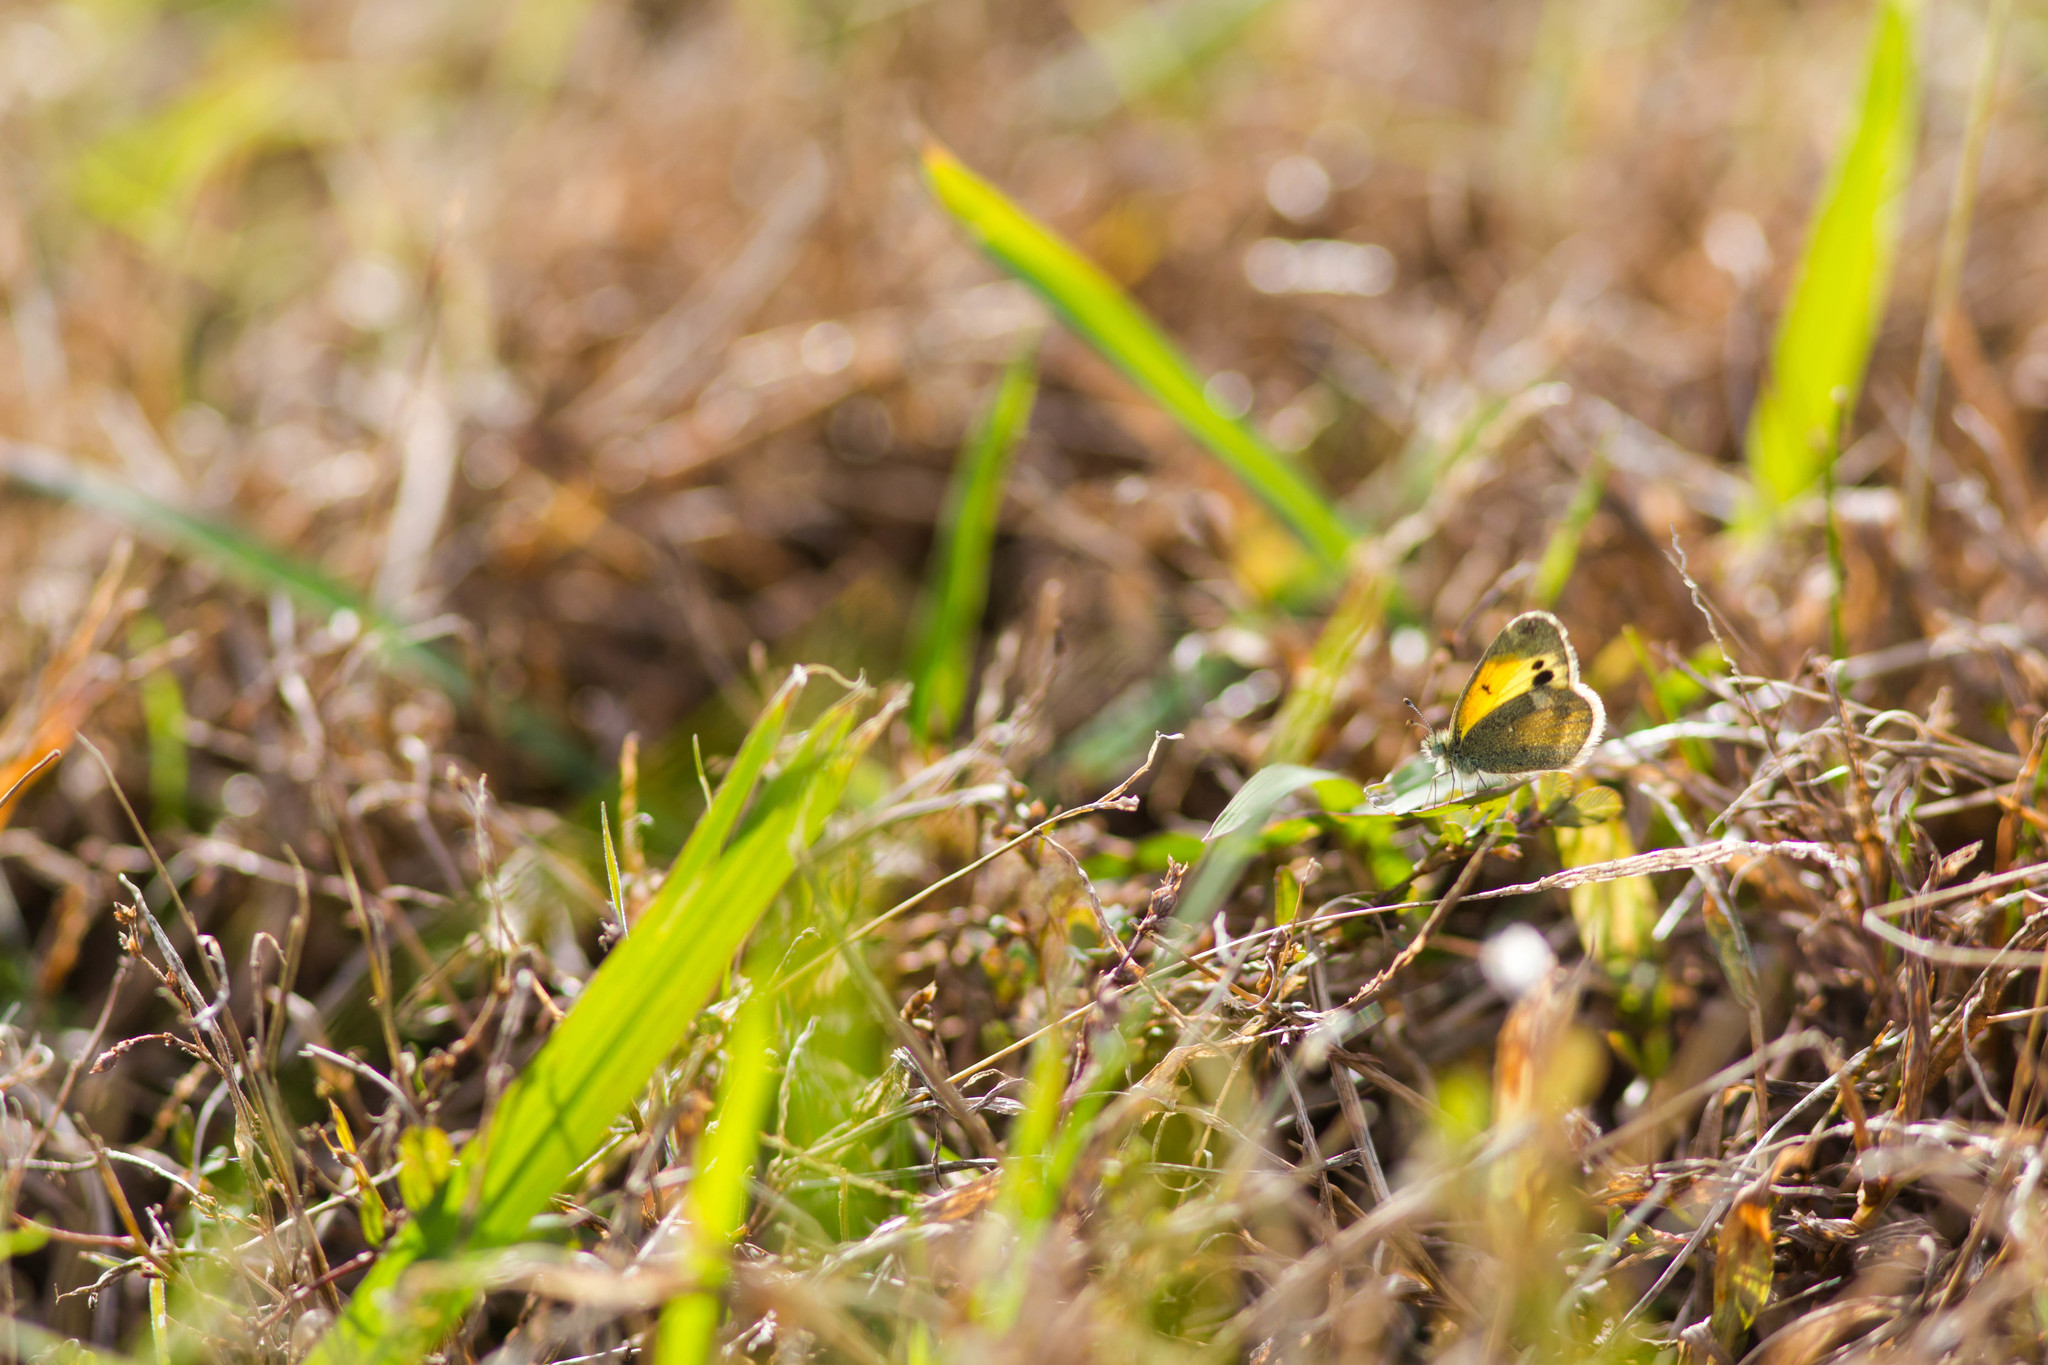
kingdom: Animalia
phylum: Arthropoda
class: Insecta
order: Lepidoptera
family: Pieridae
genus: Nathalis
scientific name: Nathalis iole
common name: Dainty sulphur
